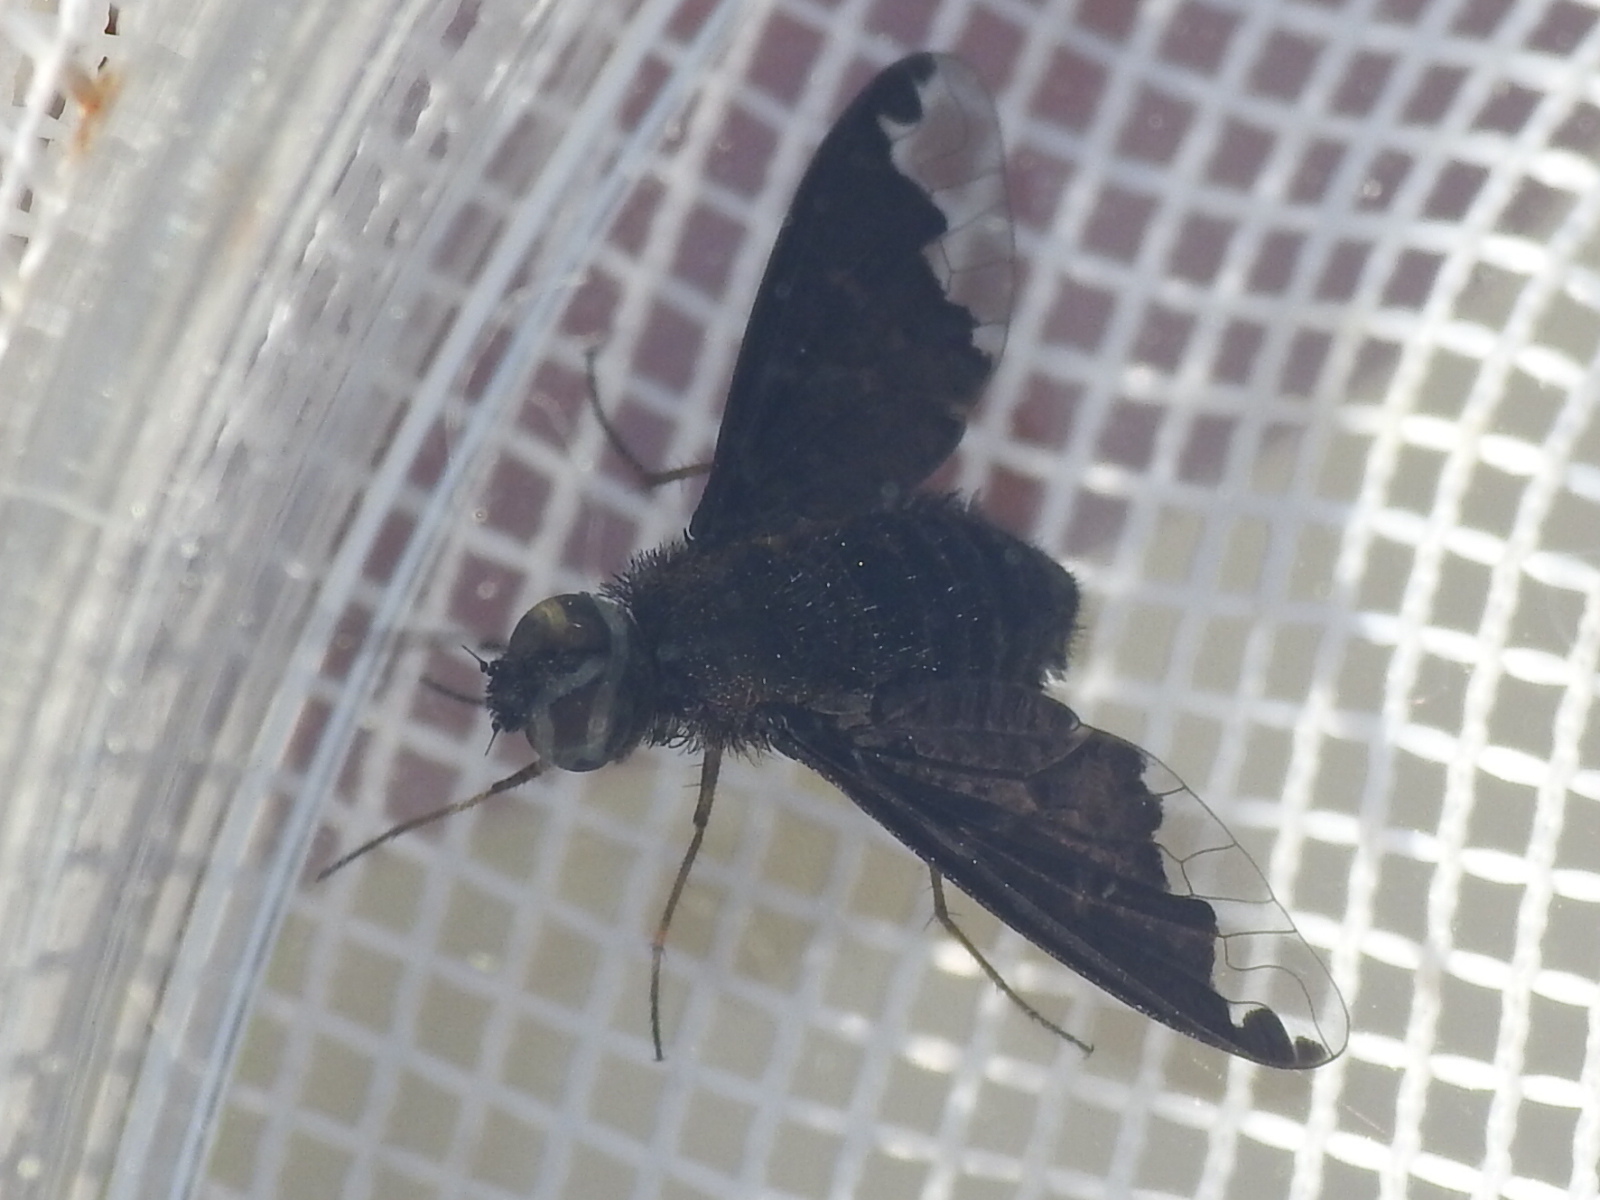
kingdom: Animalia
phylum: Arthropoda
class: Insecta
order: Diptera
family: Bombyliidae
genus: Hemipenthes
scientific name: Hemipenthes sinuosus
